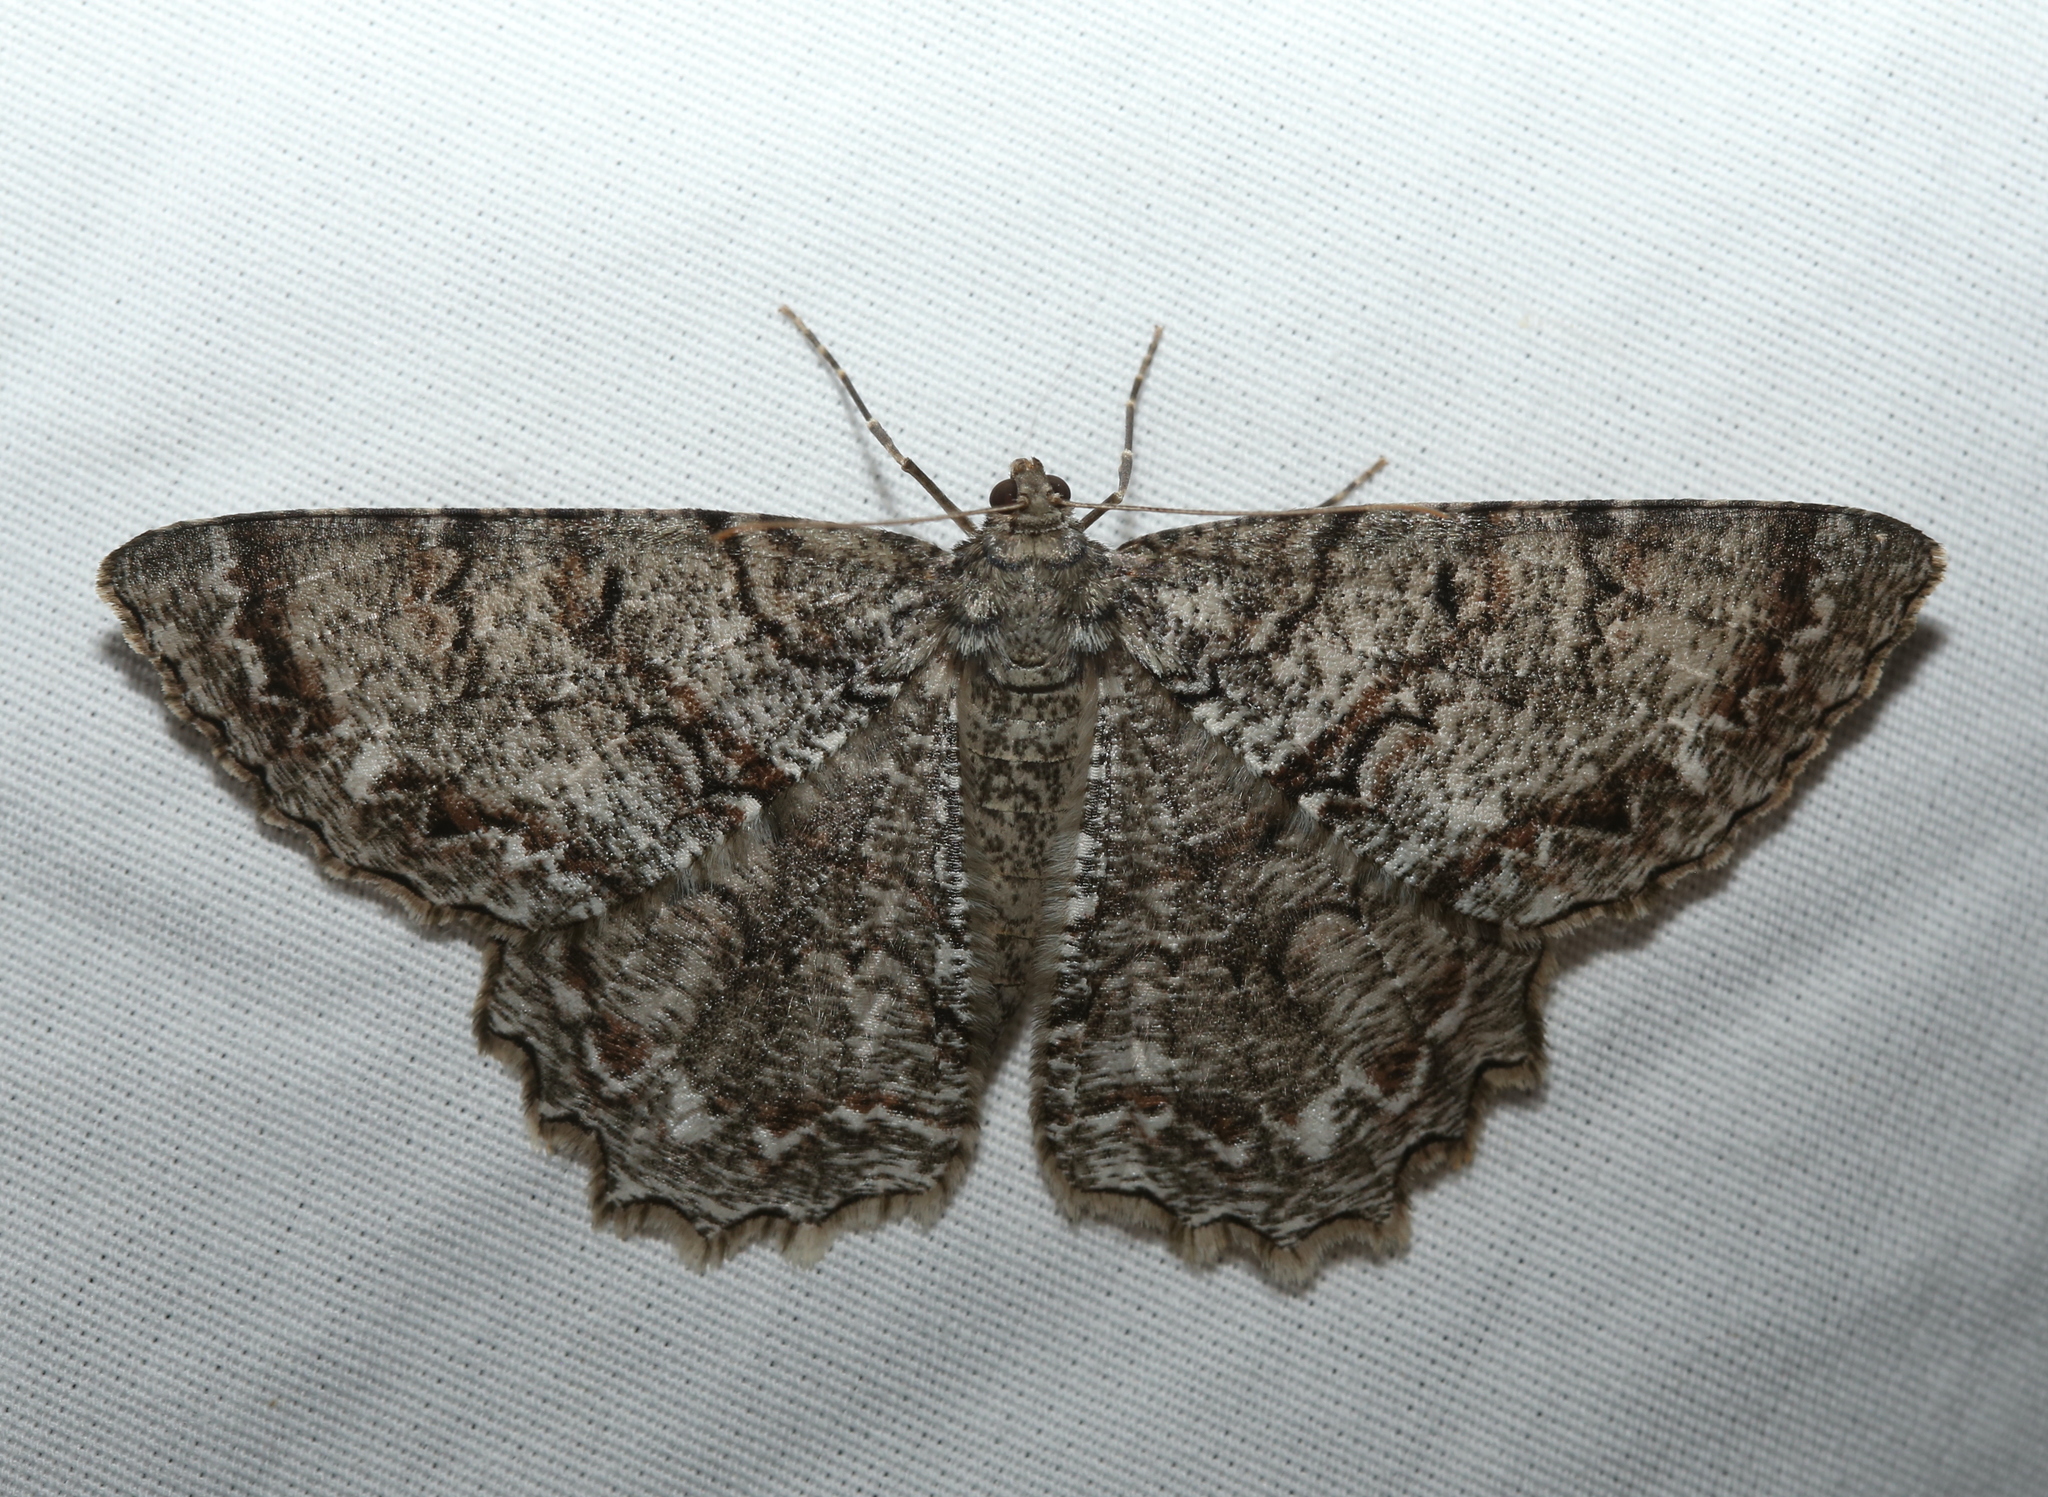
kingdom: Animalia
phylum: Arthropoda
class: Insecta
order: Lepidoptera
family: Geometridae
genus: Epimecis
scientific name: Epimecis hortaria
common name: Tulip-tree beauty
